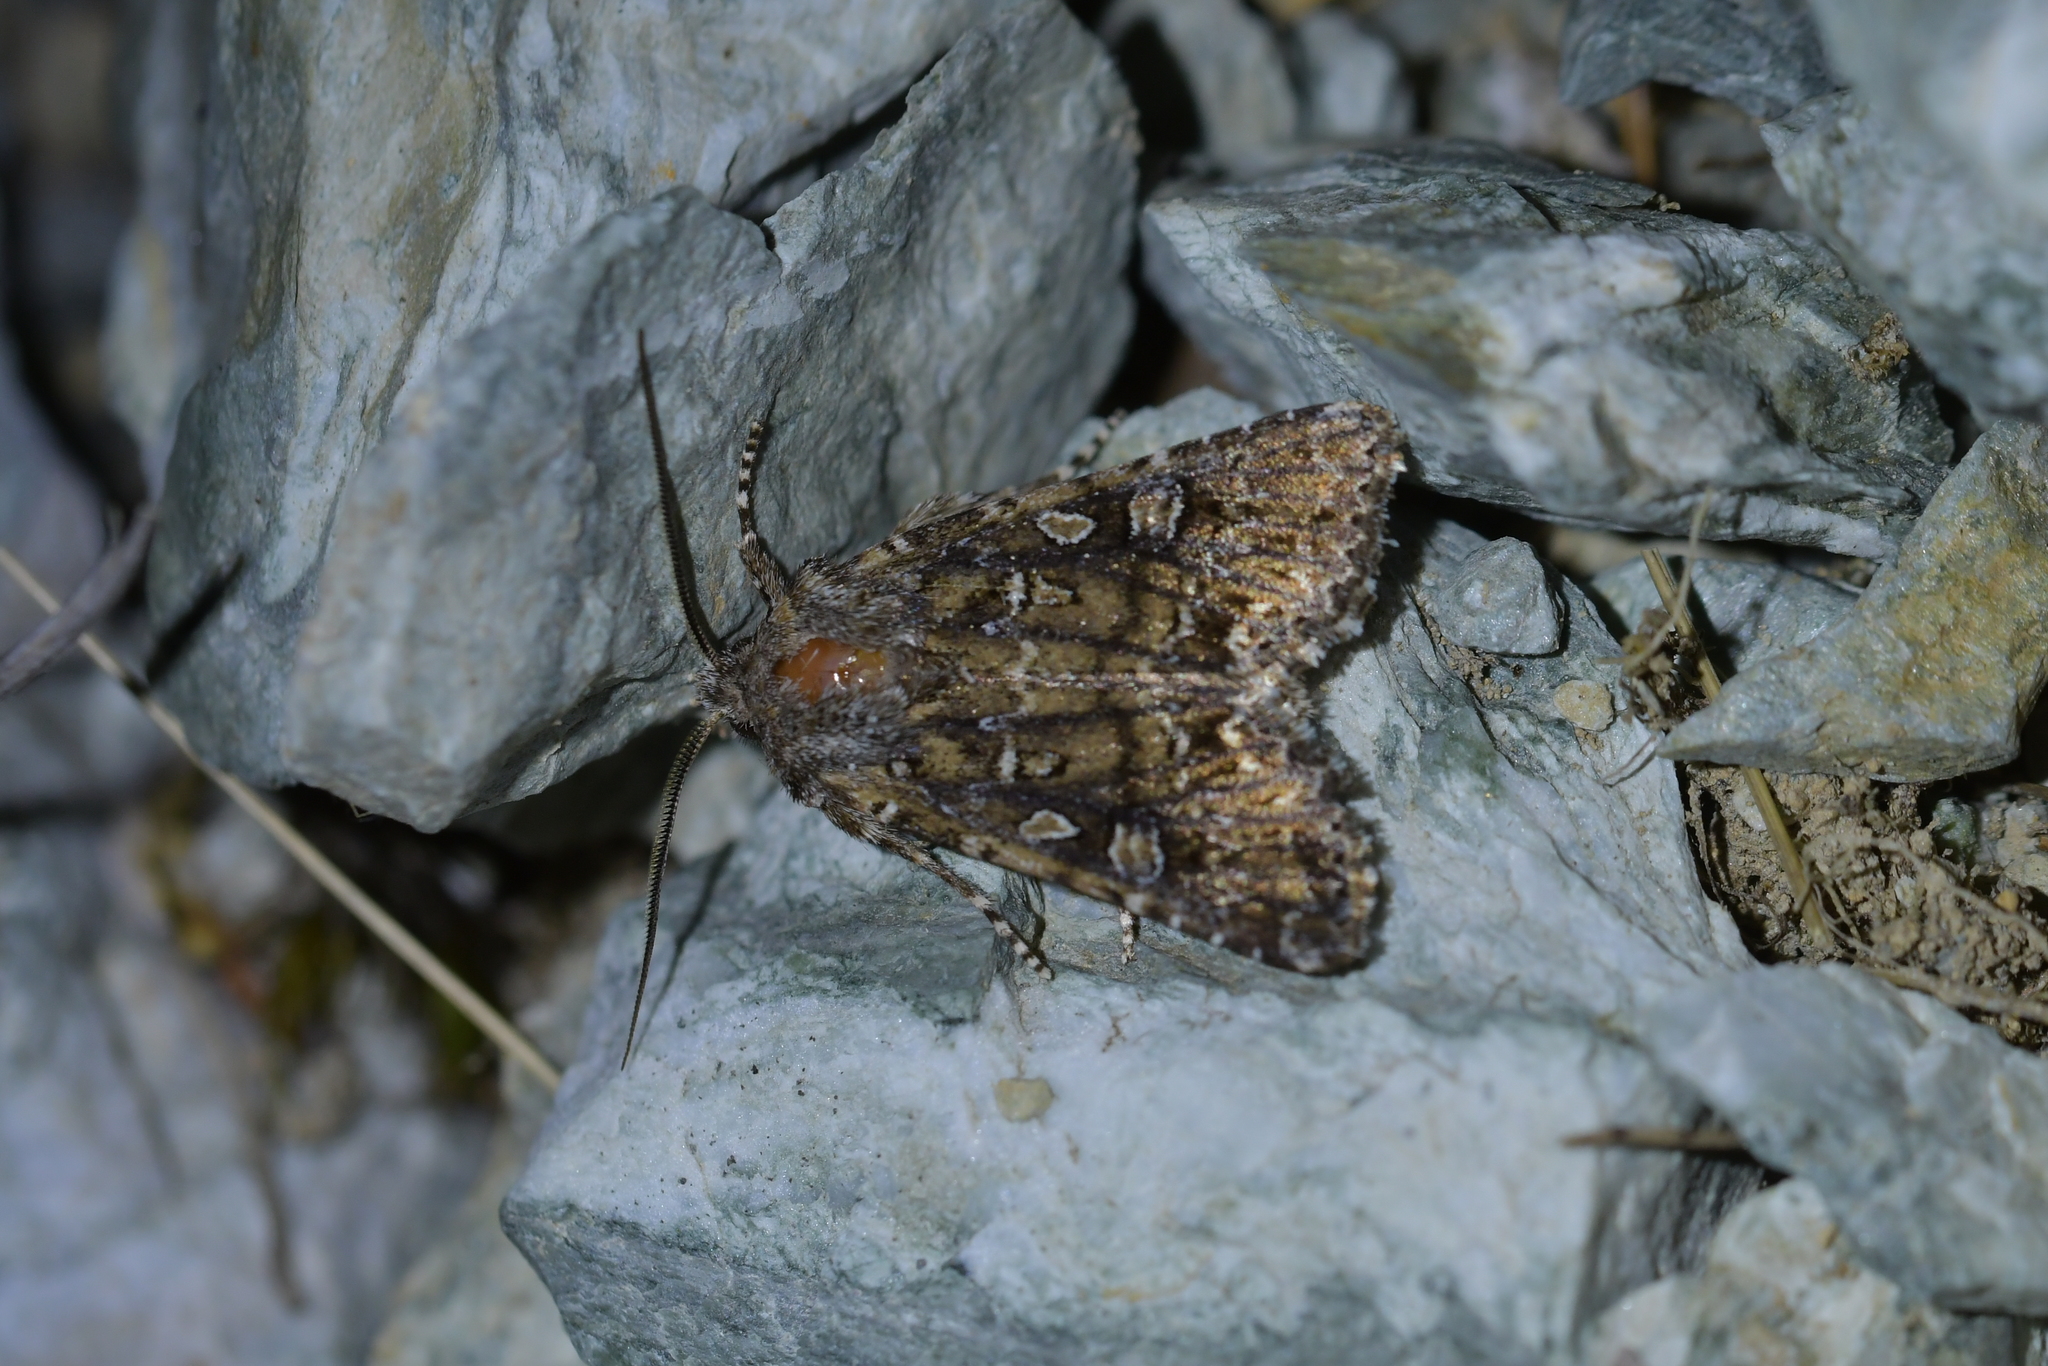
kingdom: Animalia
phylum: Arthropoda
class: Insecta
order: Lepidoptera
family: Noctuidae
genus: Ichneutica
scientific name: Ichneutica lithias
